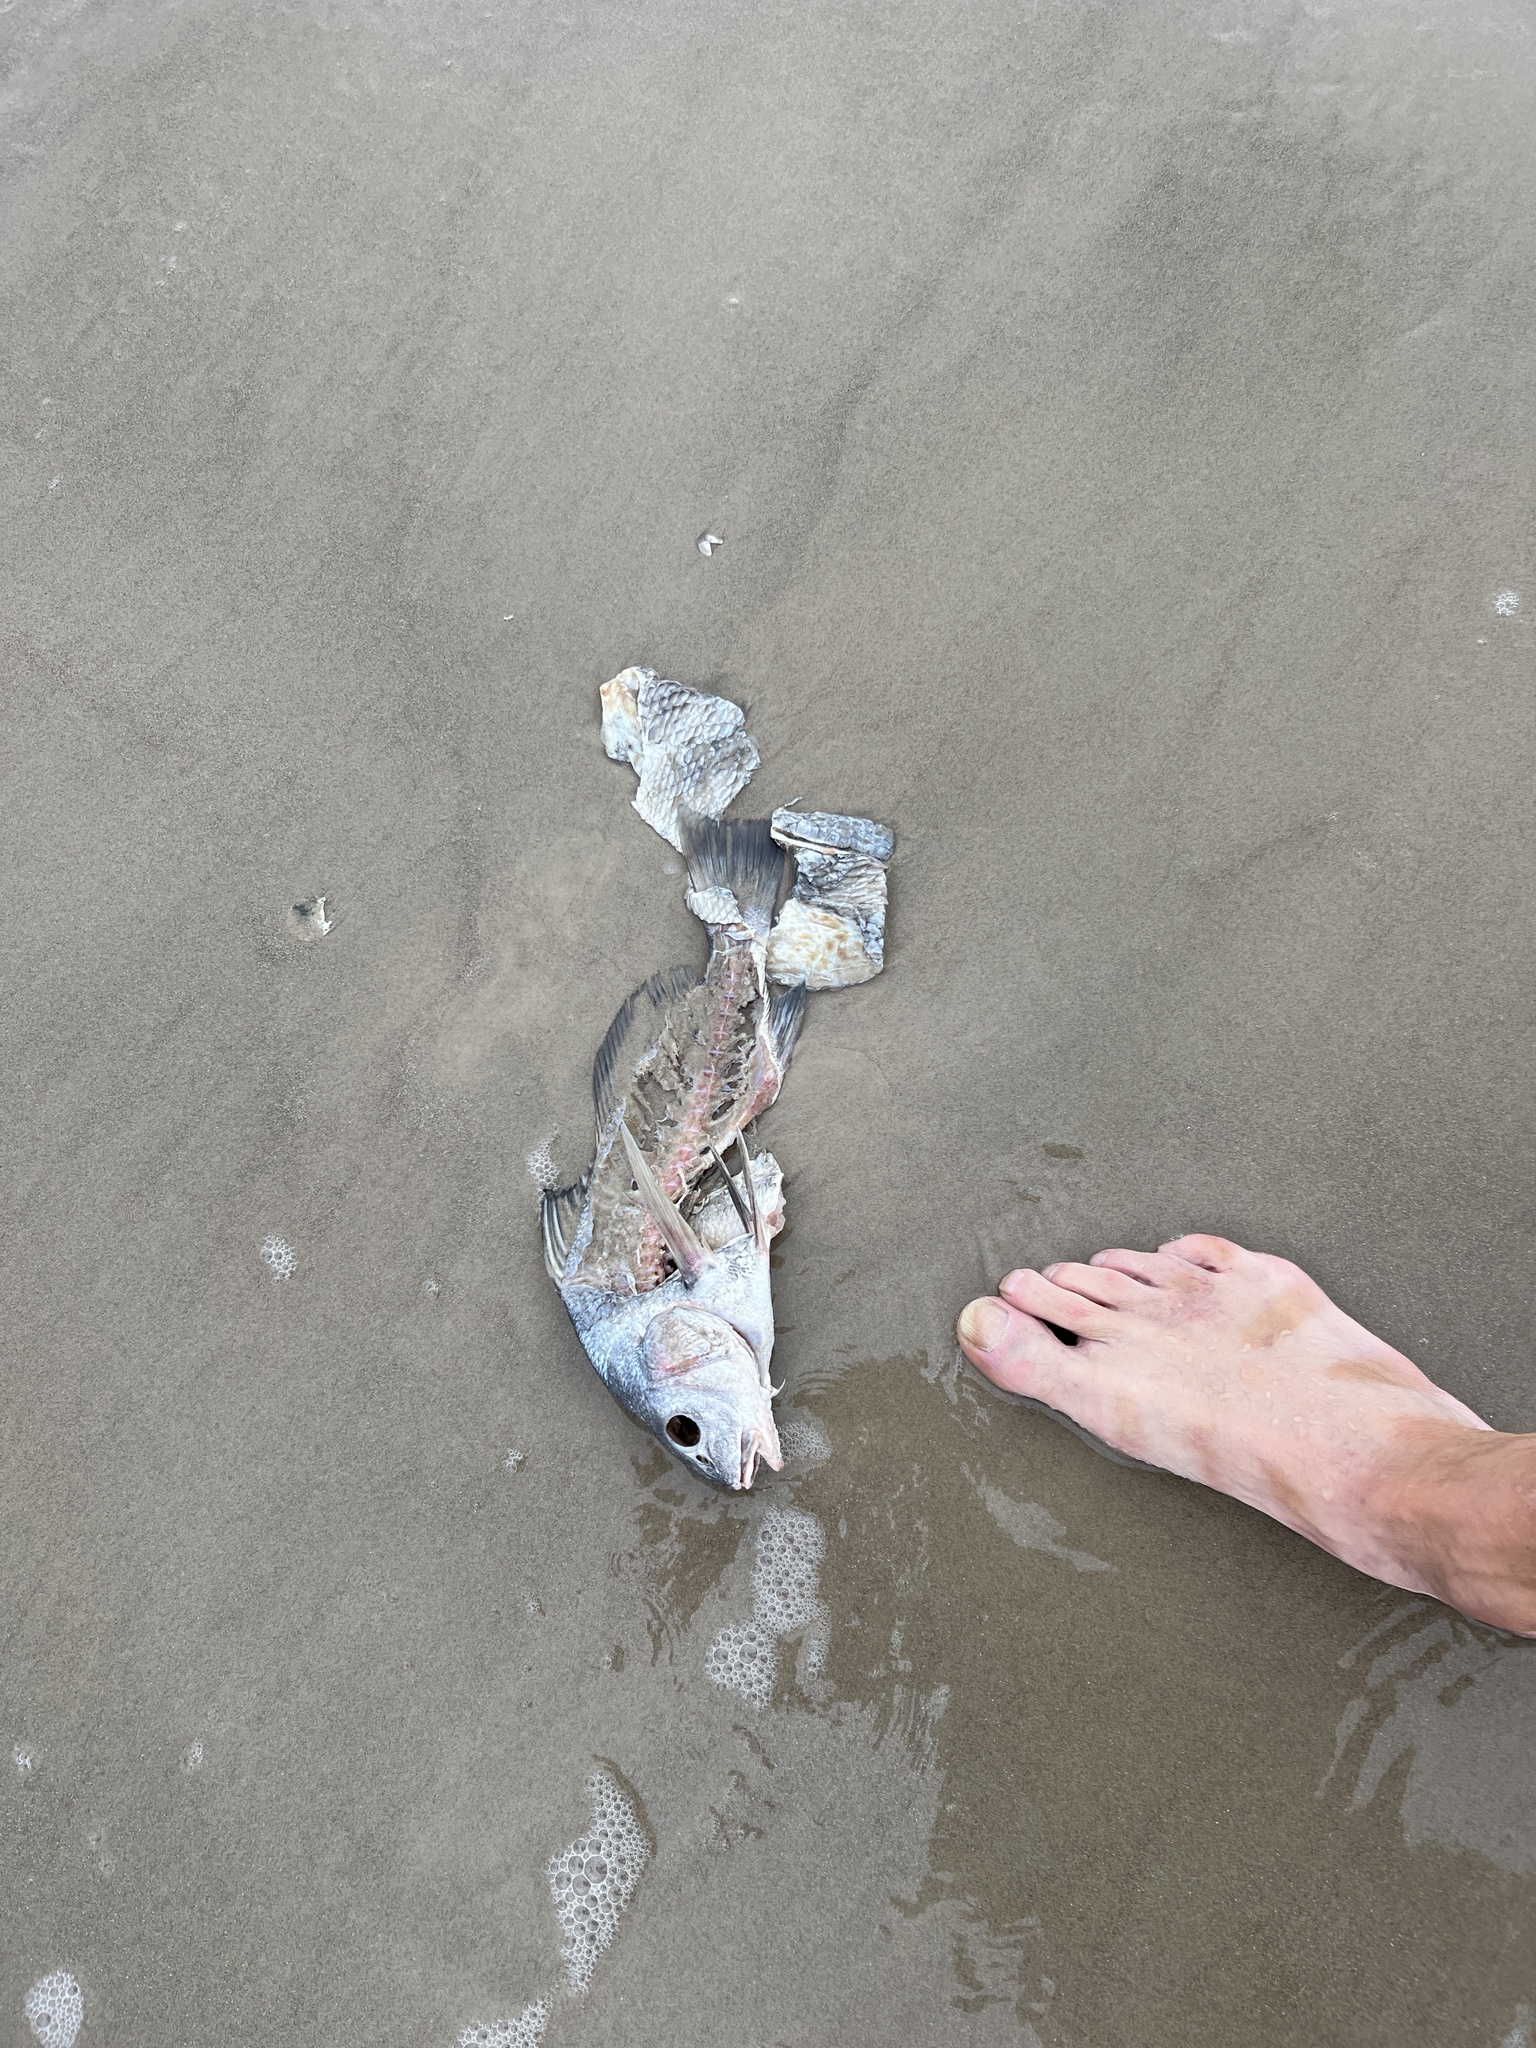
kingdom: Animalia
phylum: Chordata
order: Perciformes
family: Sciaenidae
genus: Pogonias
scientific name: Pogonias cromis
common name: Black drum
